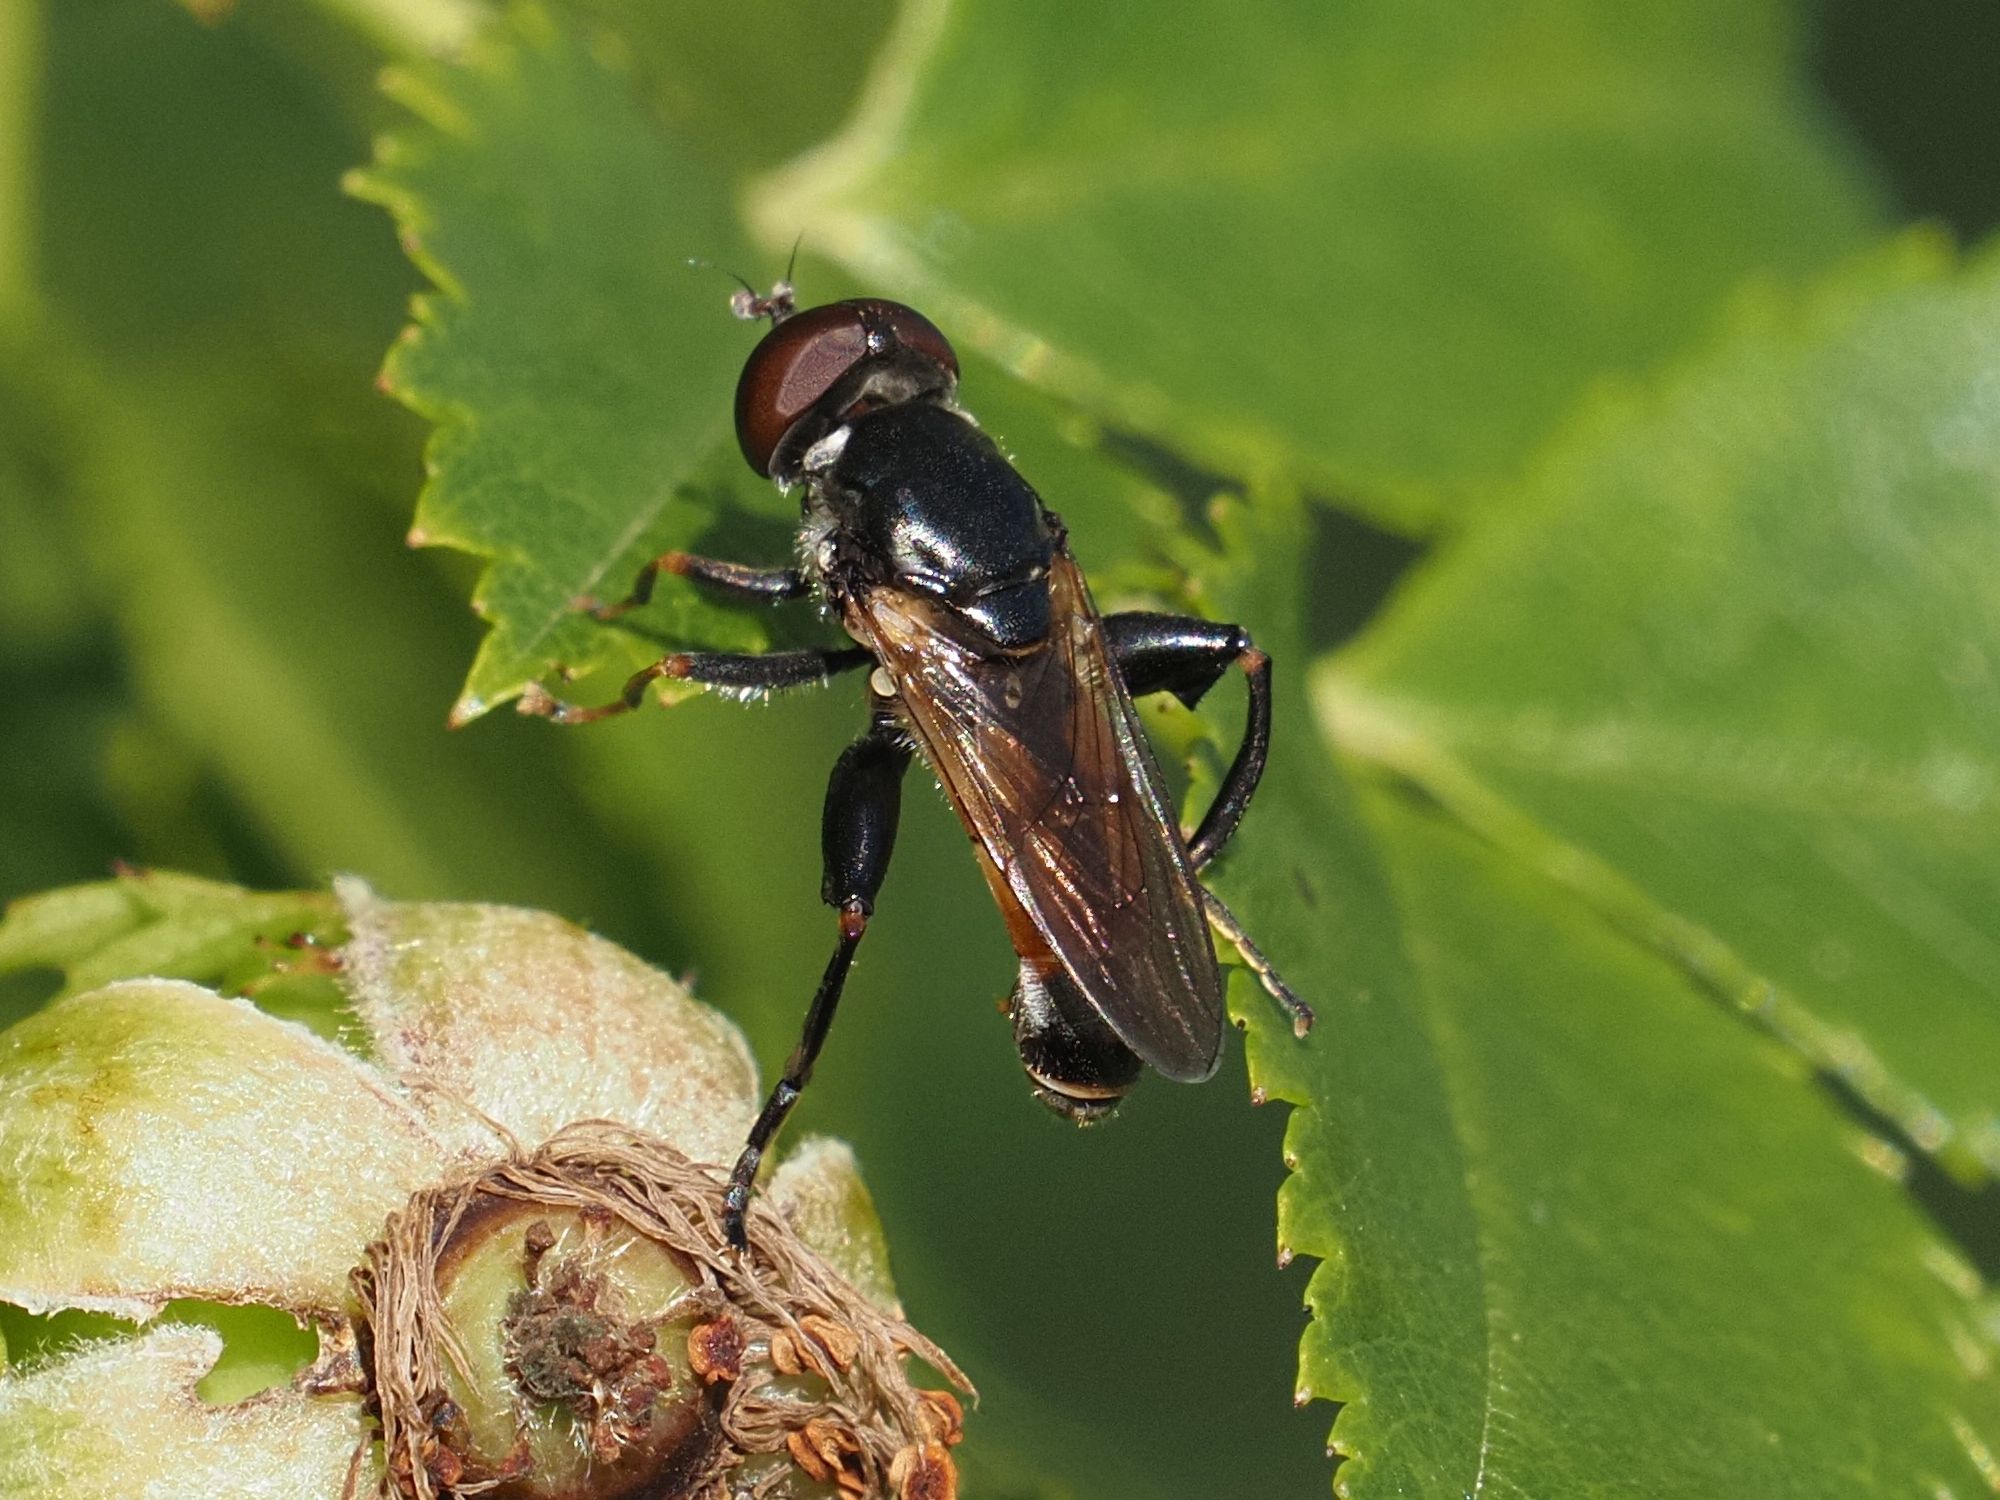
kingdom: Animalia
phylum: Arthropoda
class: Insecta
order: Diptera
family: Syrphidae
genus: Tropidia
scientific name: Tropidia scita
